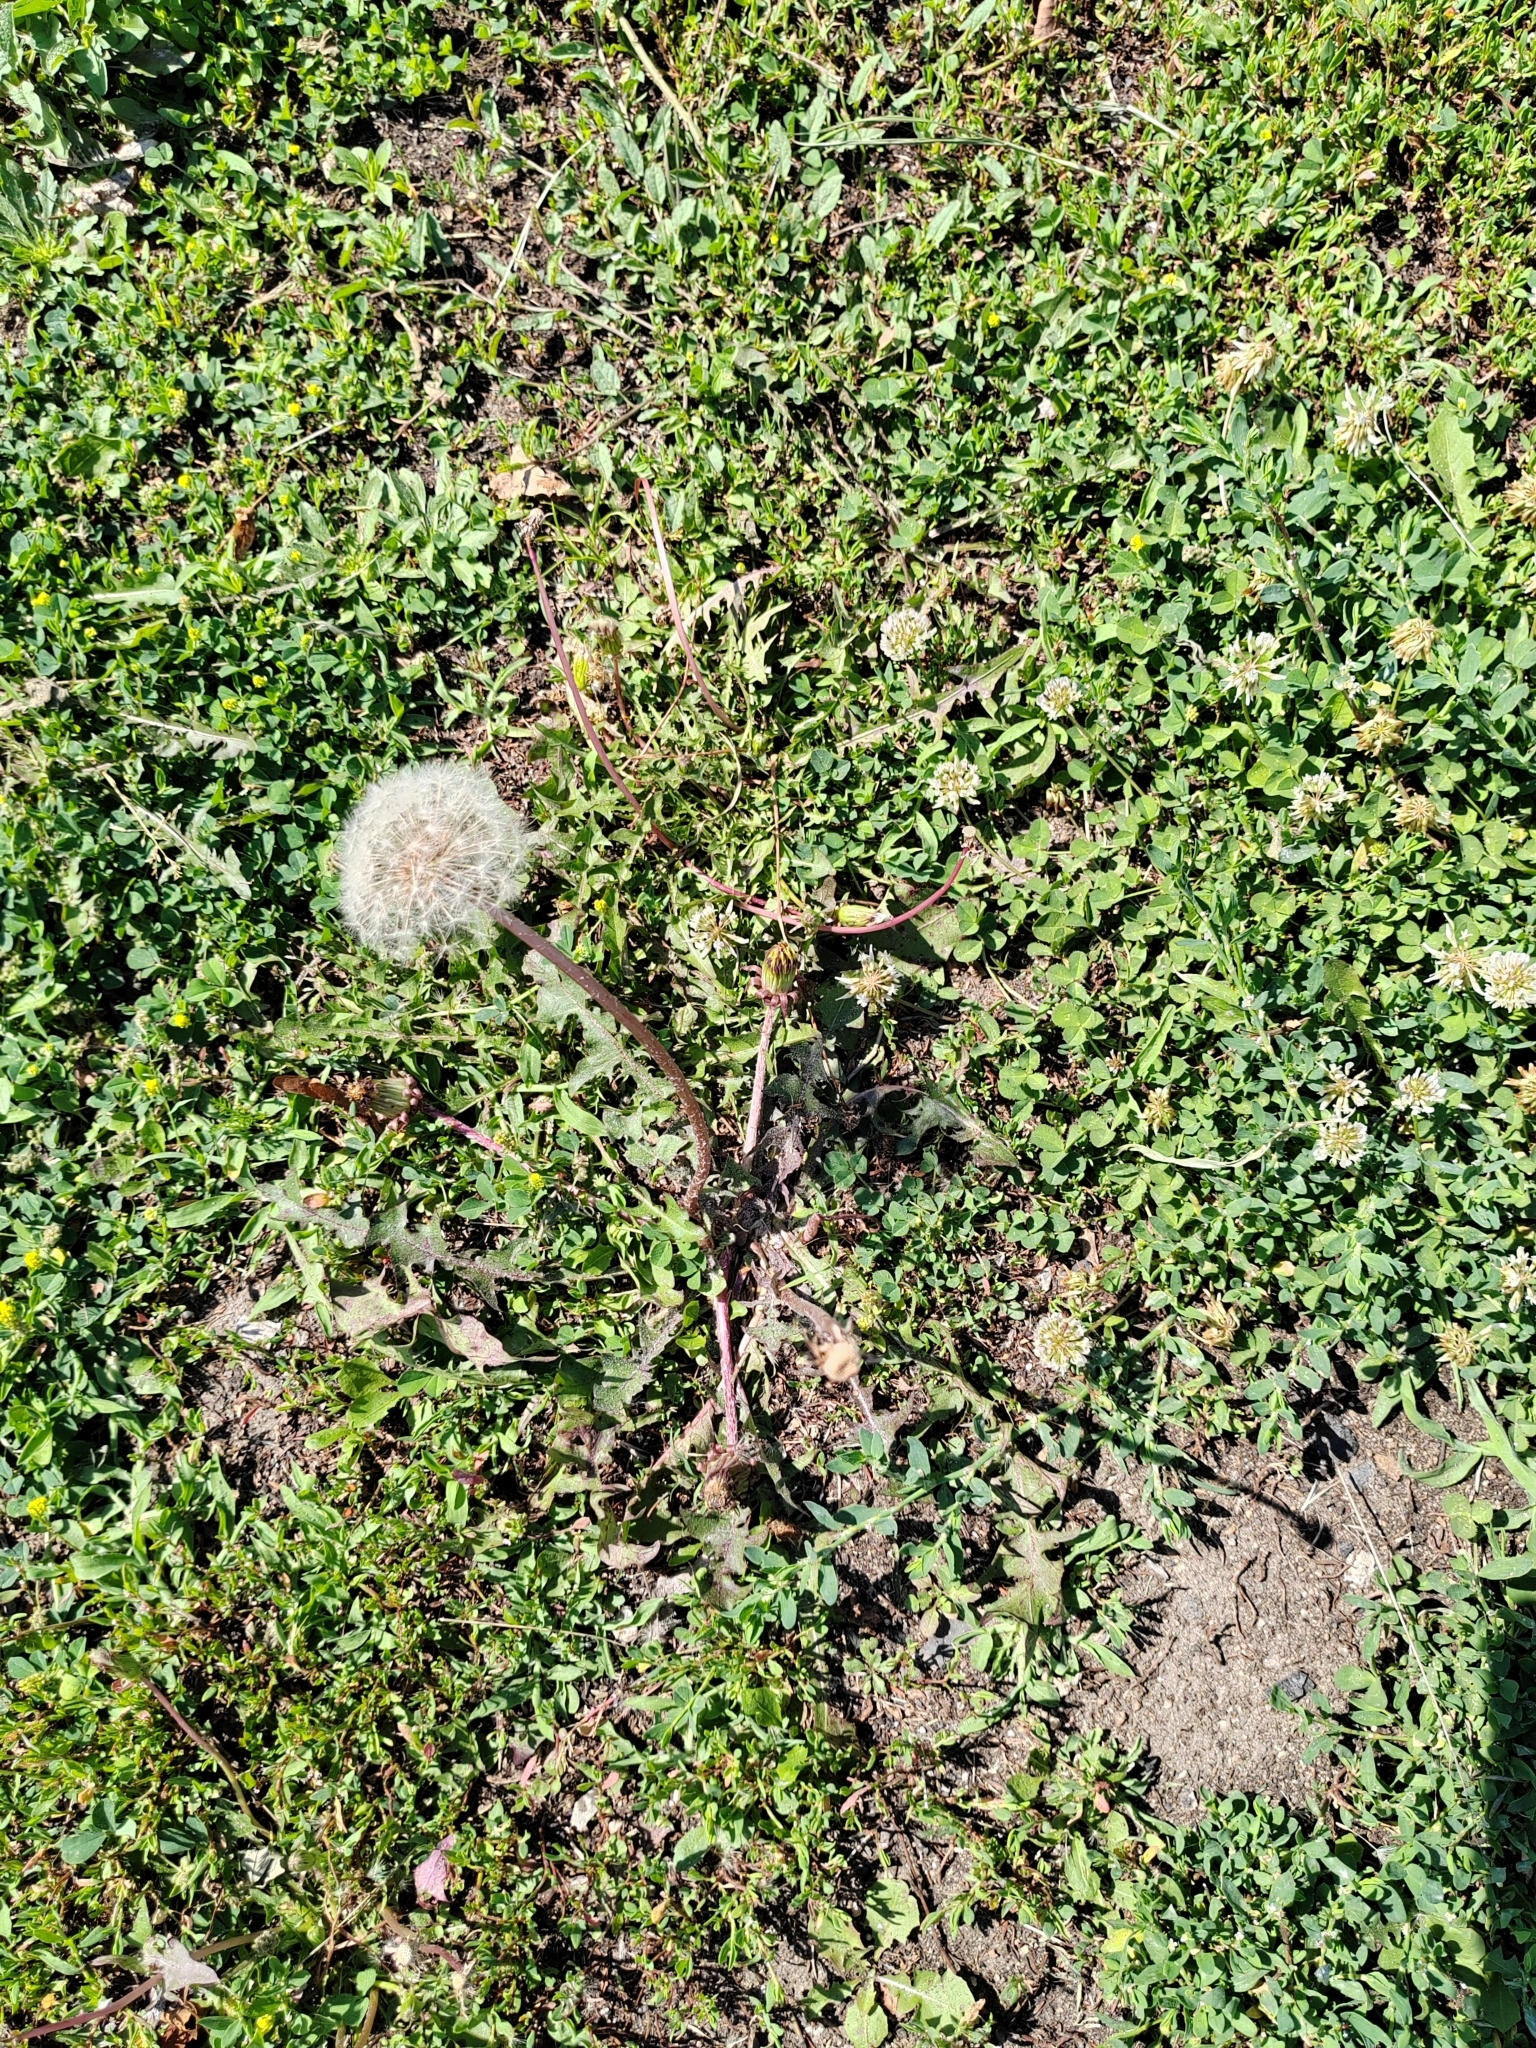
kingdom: Plantae
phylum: Tracheophyta
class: Magnoliopsida
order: Asterales
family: Asteraceae
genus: Taraxacum
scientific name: Taraxacum officinale
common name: Common dandelion
